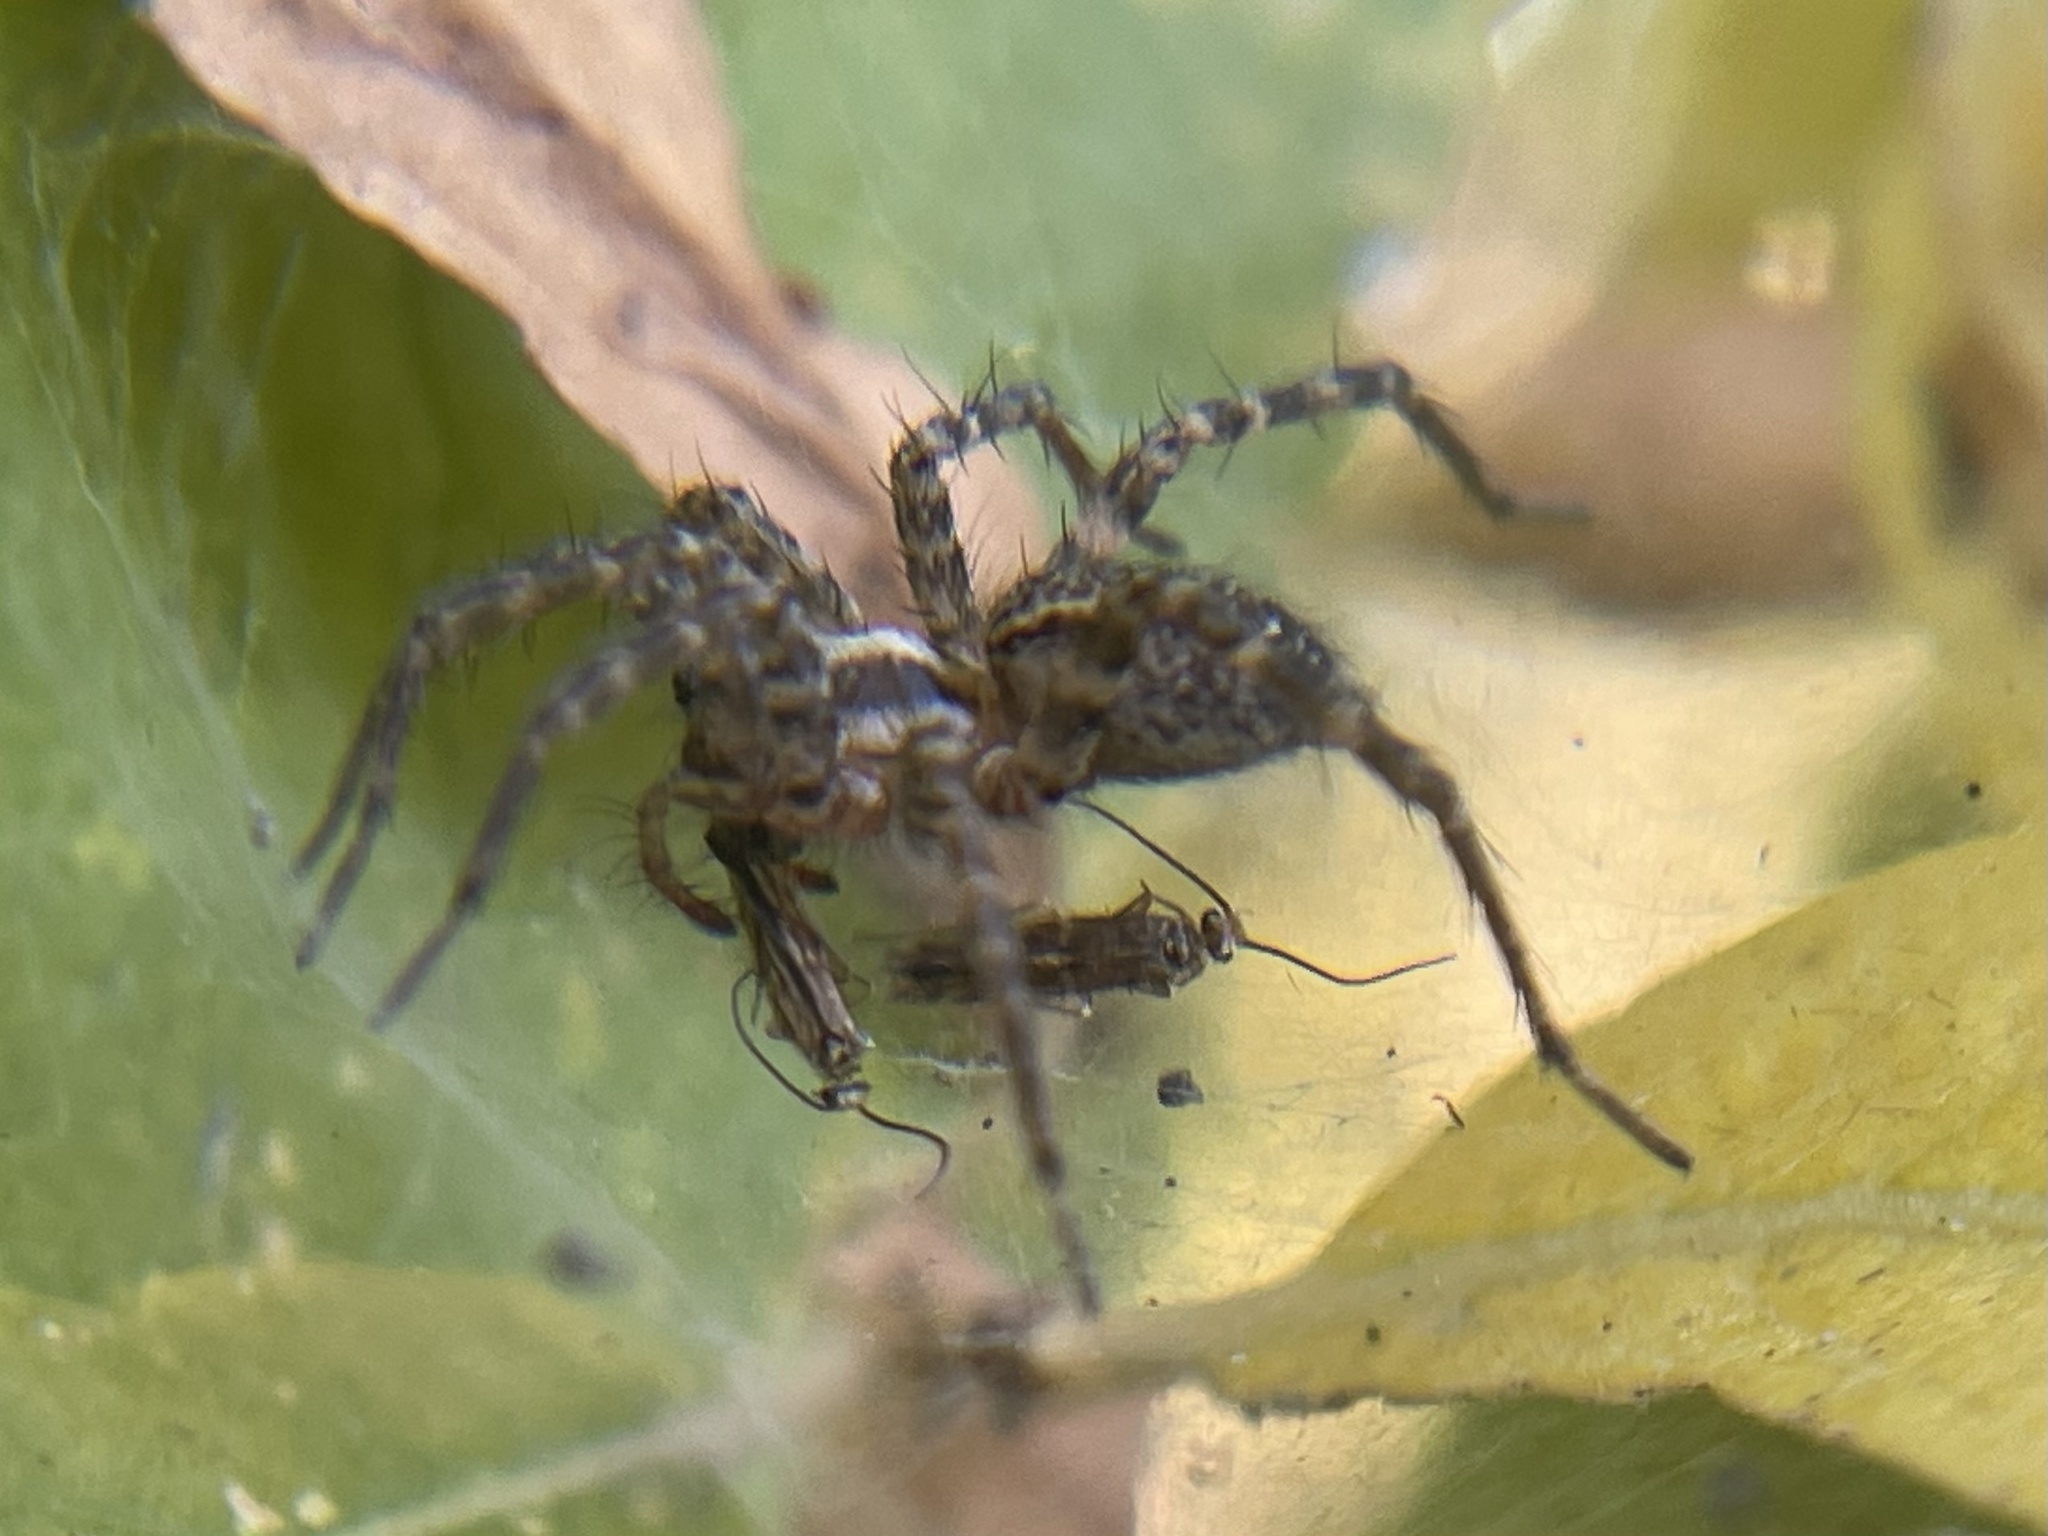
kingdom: Animalia
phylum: Arthropoda
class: Arachnida
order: Araneae
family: Agelenidae
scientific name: Agelenidae
